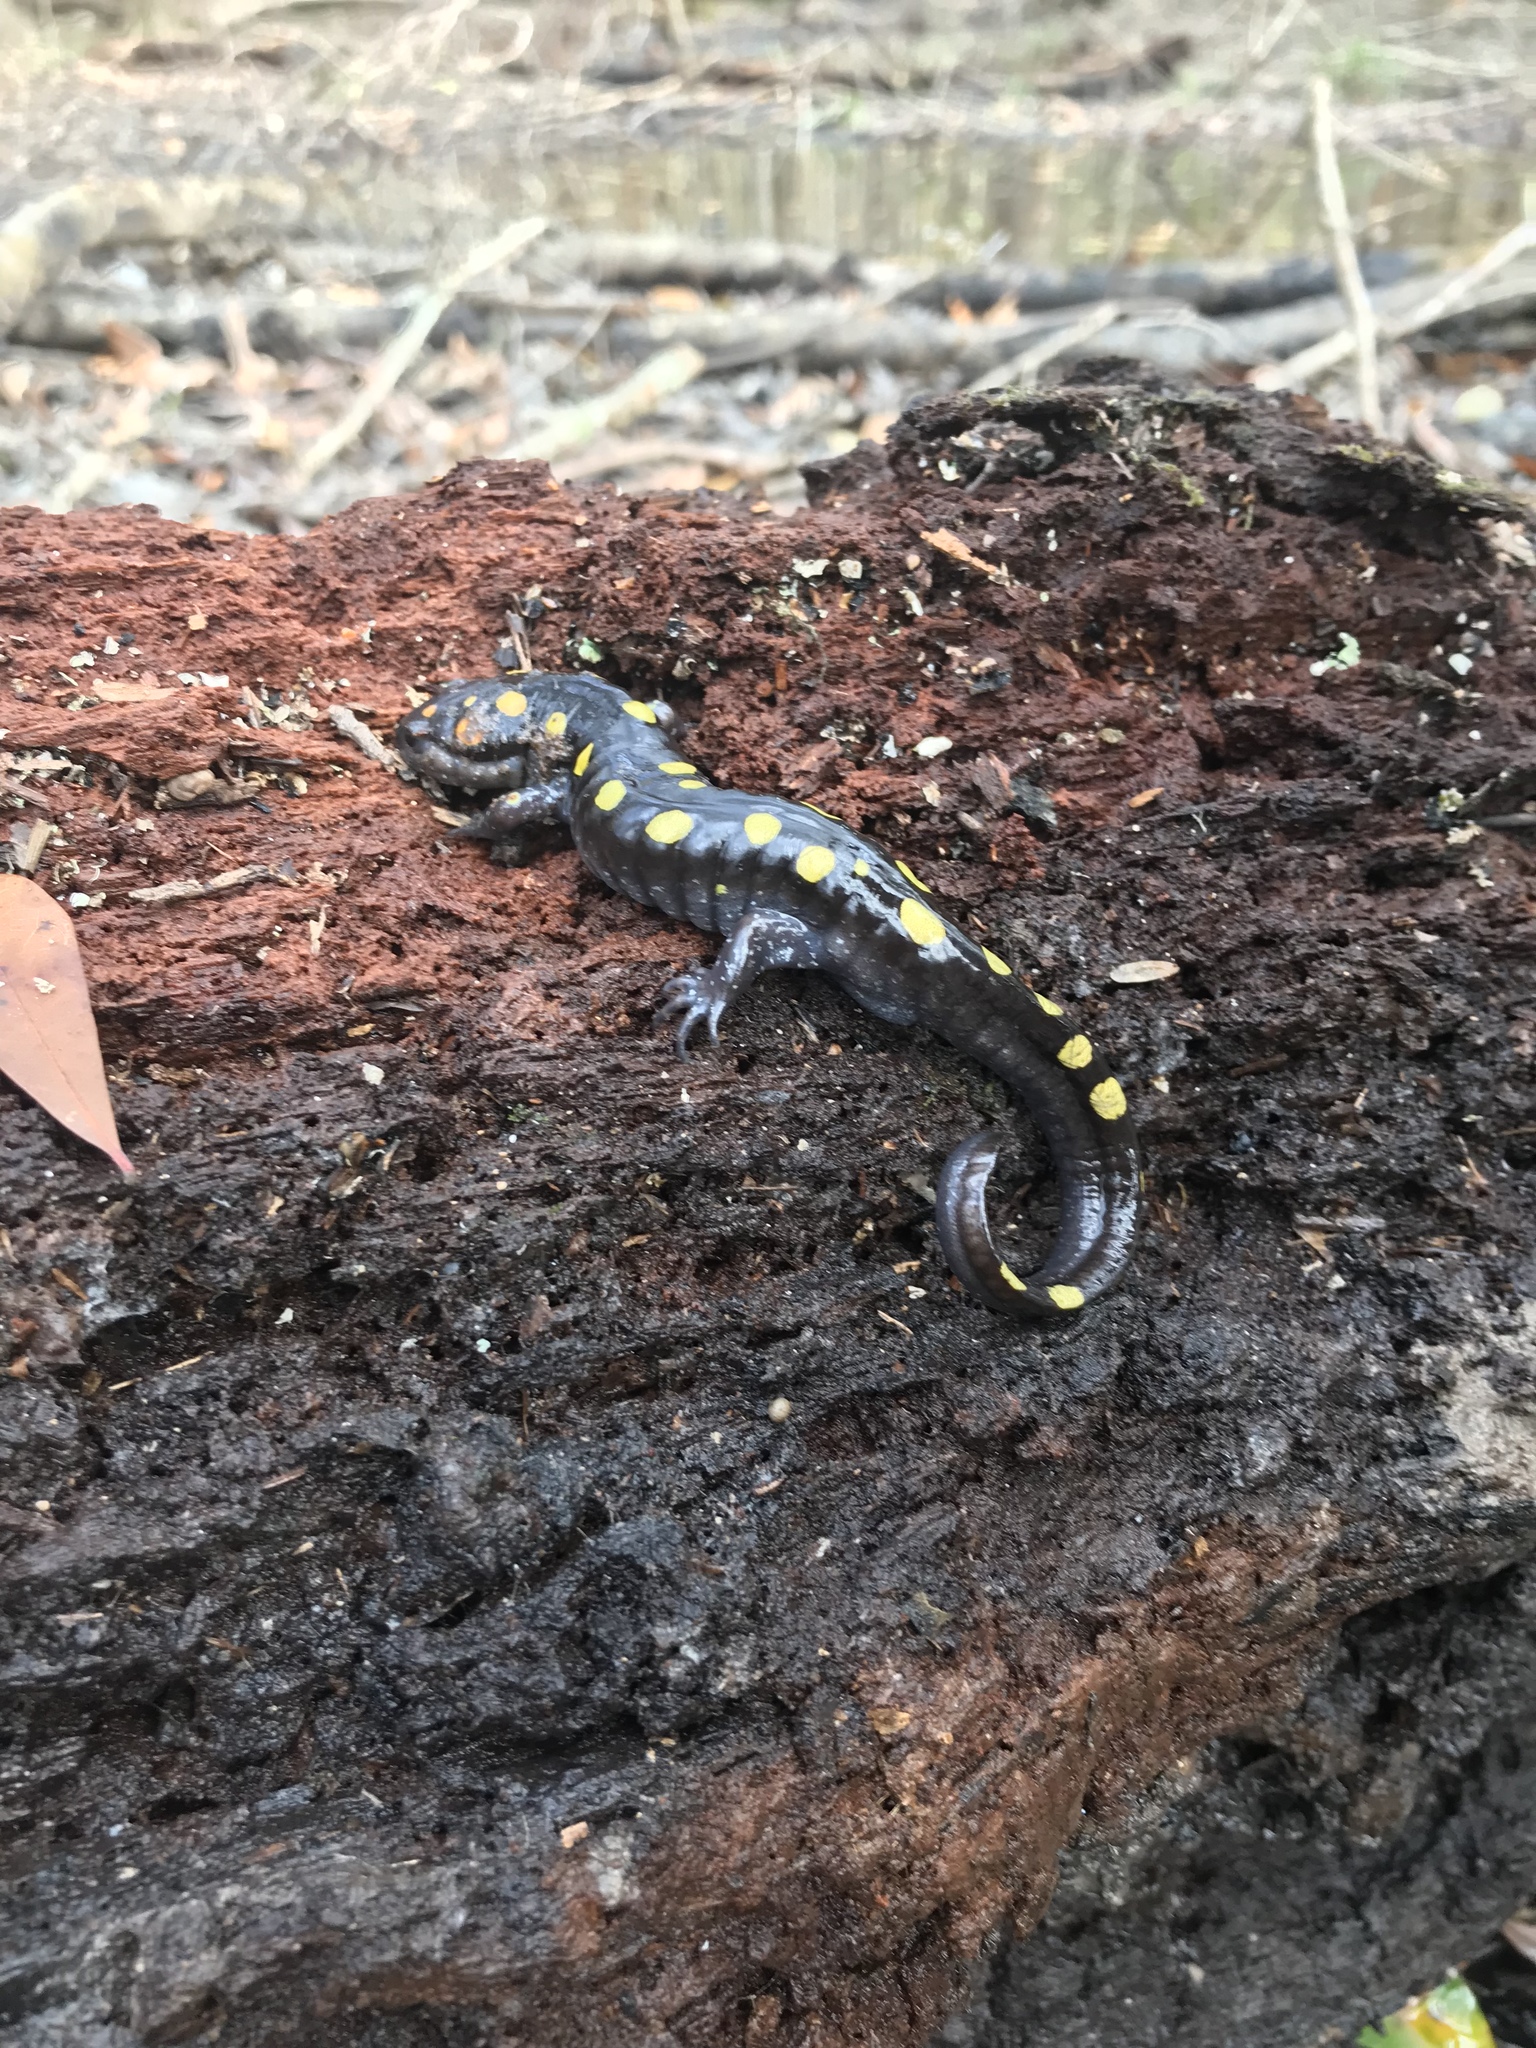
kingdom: Animalia
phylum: Chordata
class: Amphibia
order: Caudata
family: Ambystomatidae
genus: Ambystoma
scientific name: Ambystoma maculatum
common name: Spotted salamander
